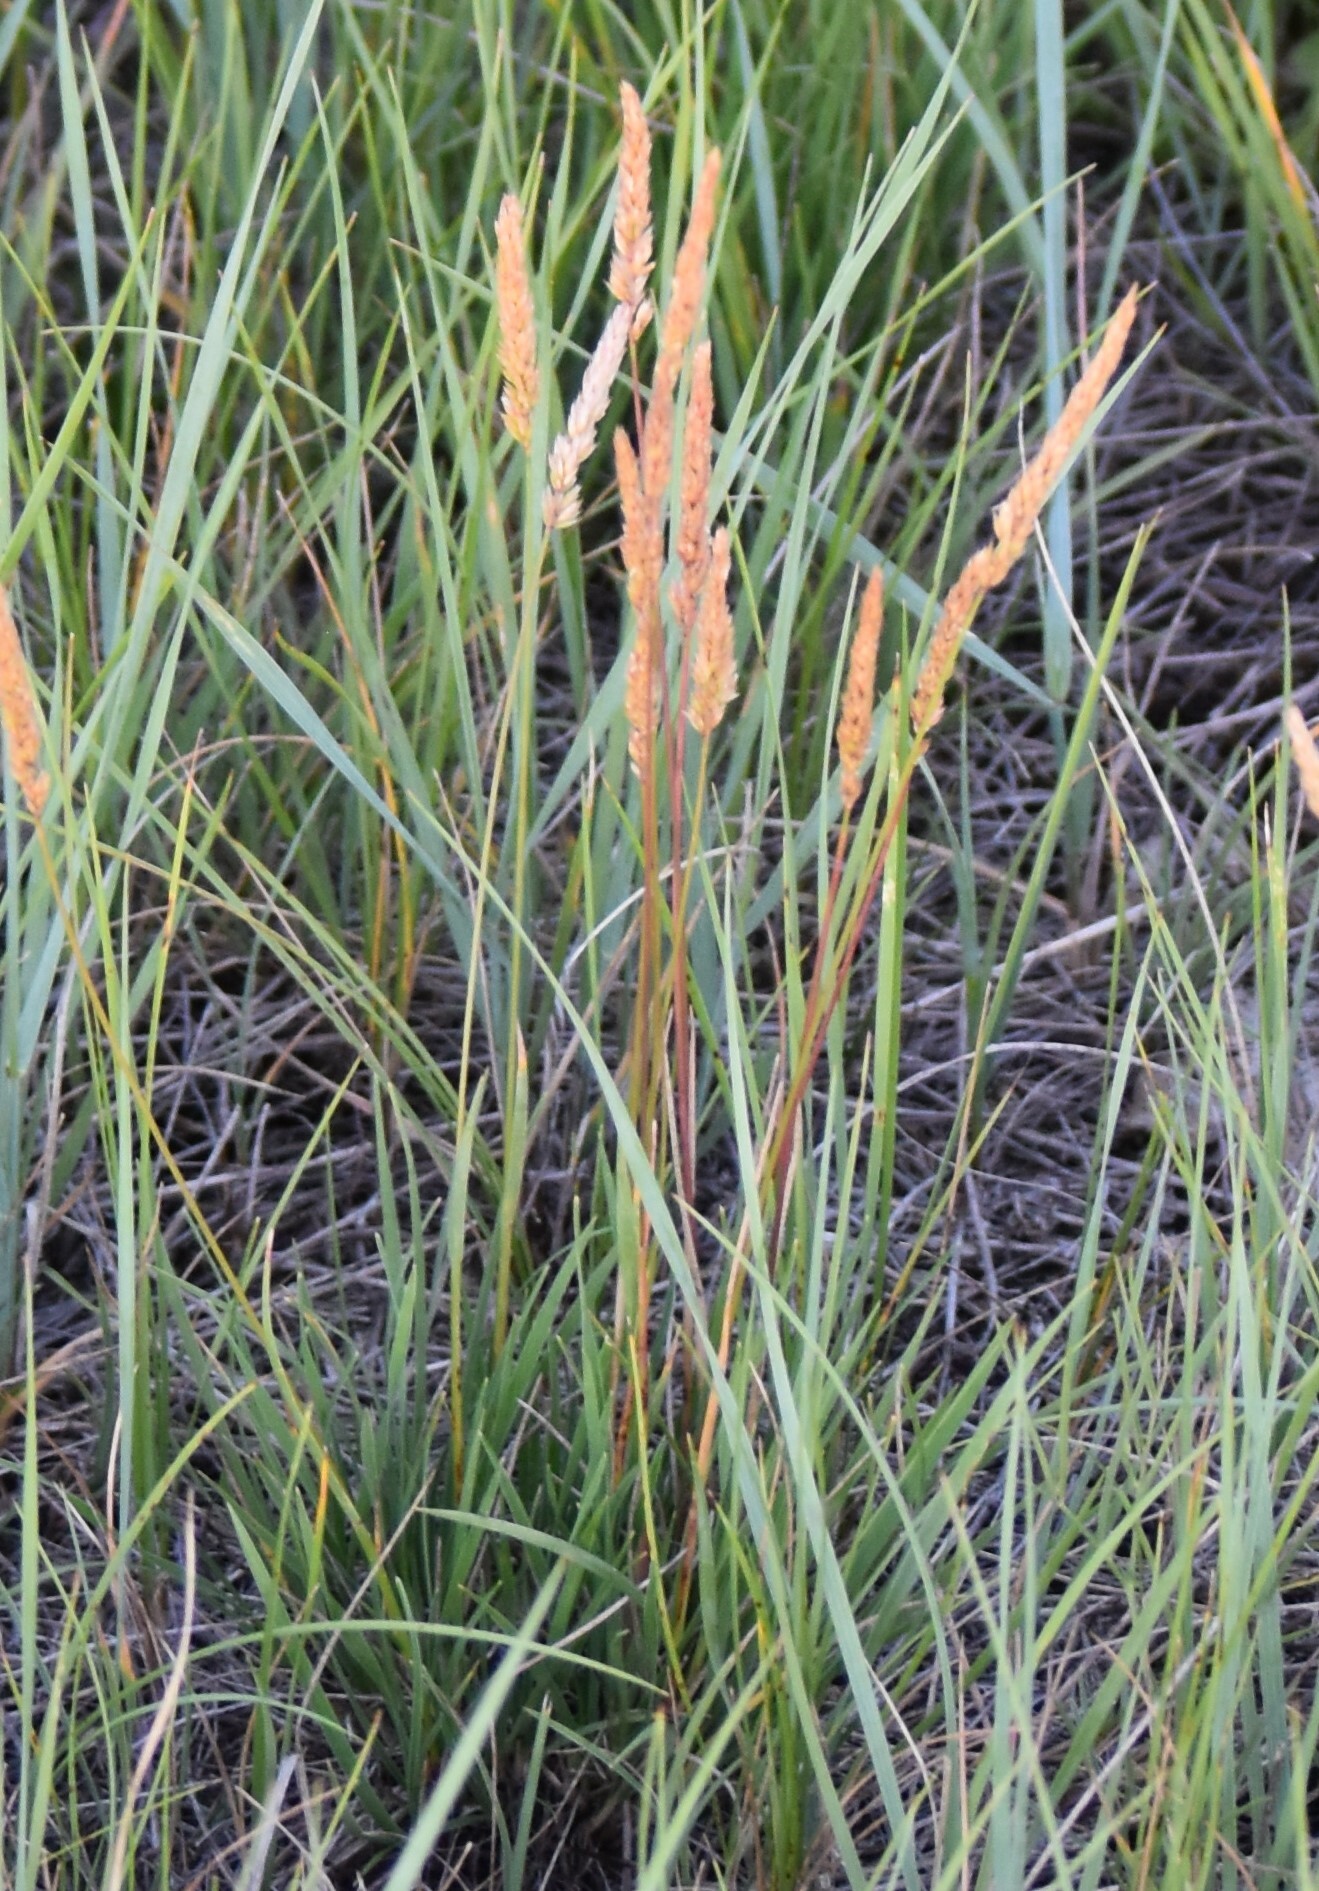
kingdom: Plantae
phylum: Tracheophyta
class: Liliopsida
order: Poales
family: Poaceae
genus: Koeleria
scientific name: Koeleria macrantha
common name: Crested hair-grass
